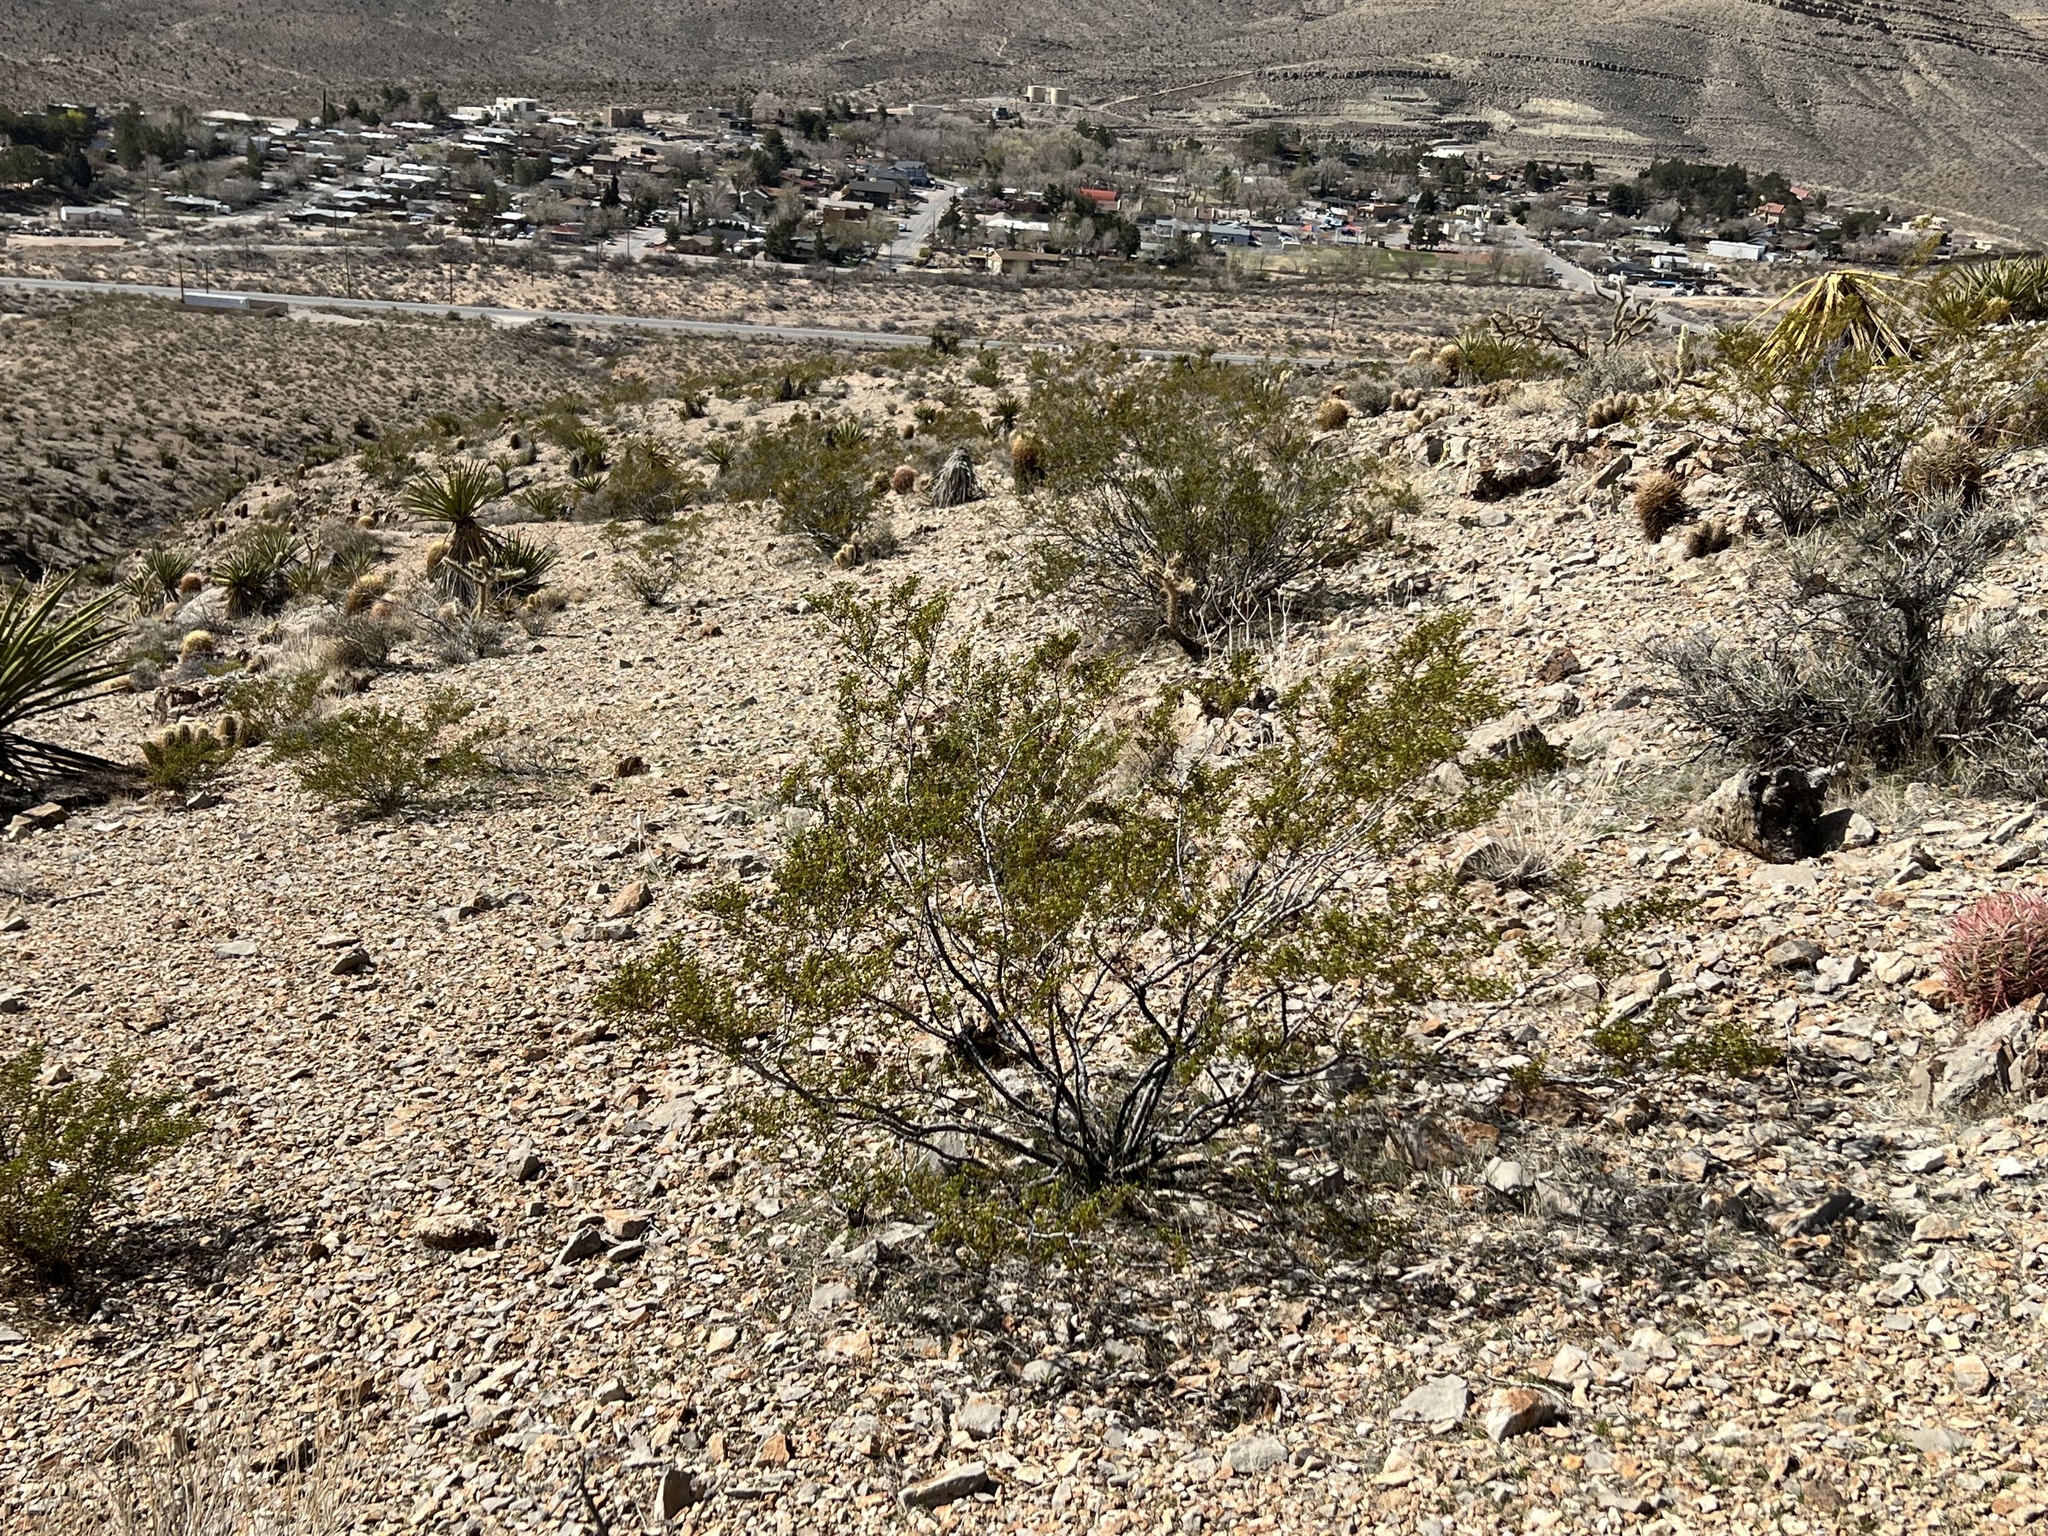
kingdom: Plantae
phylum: Tracheophyta
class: Magnoliopsida
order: Zygophyllales
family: Zygophyllaceae
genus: Larrea
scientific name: Larrea tridentata
